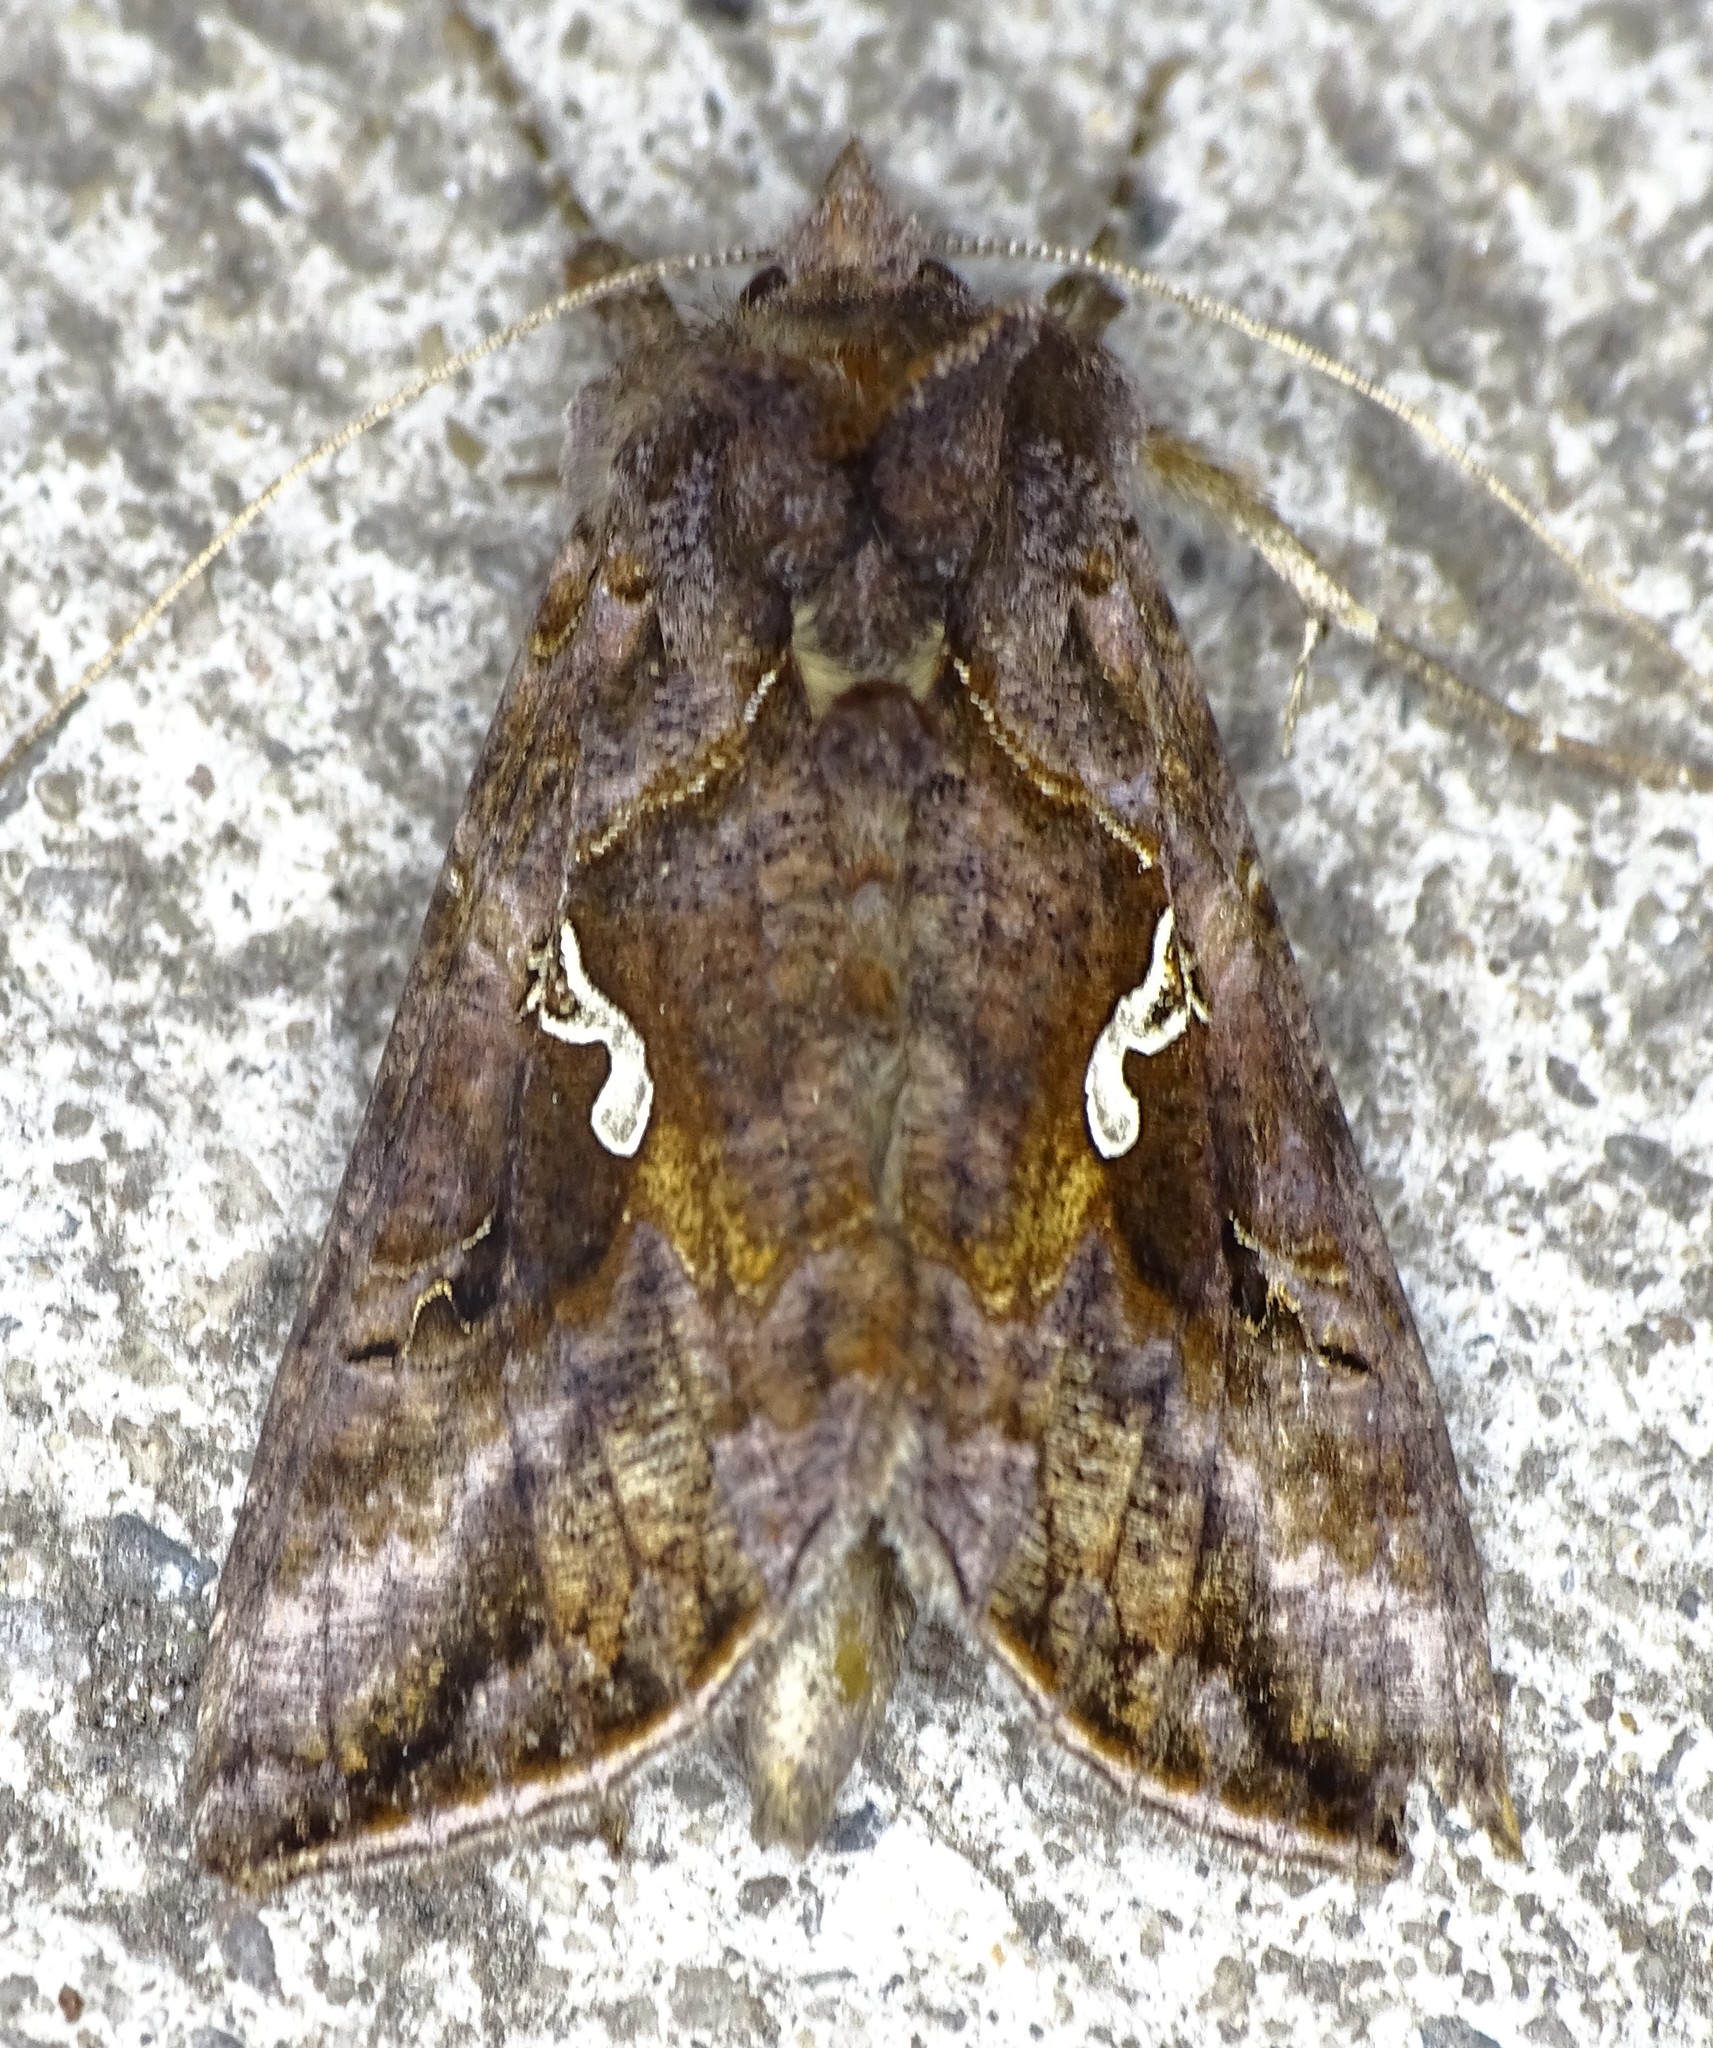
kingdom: Animalia
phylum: Arthropoda
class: Insecta
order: Lepidoptera
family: Noctuidae
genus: Autographa
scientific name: Autographa precationis
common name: Common looper moth
